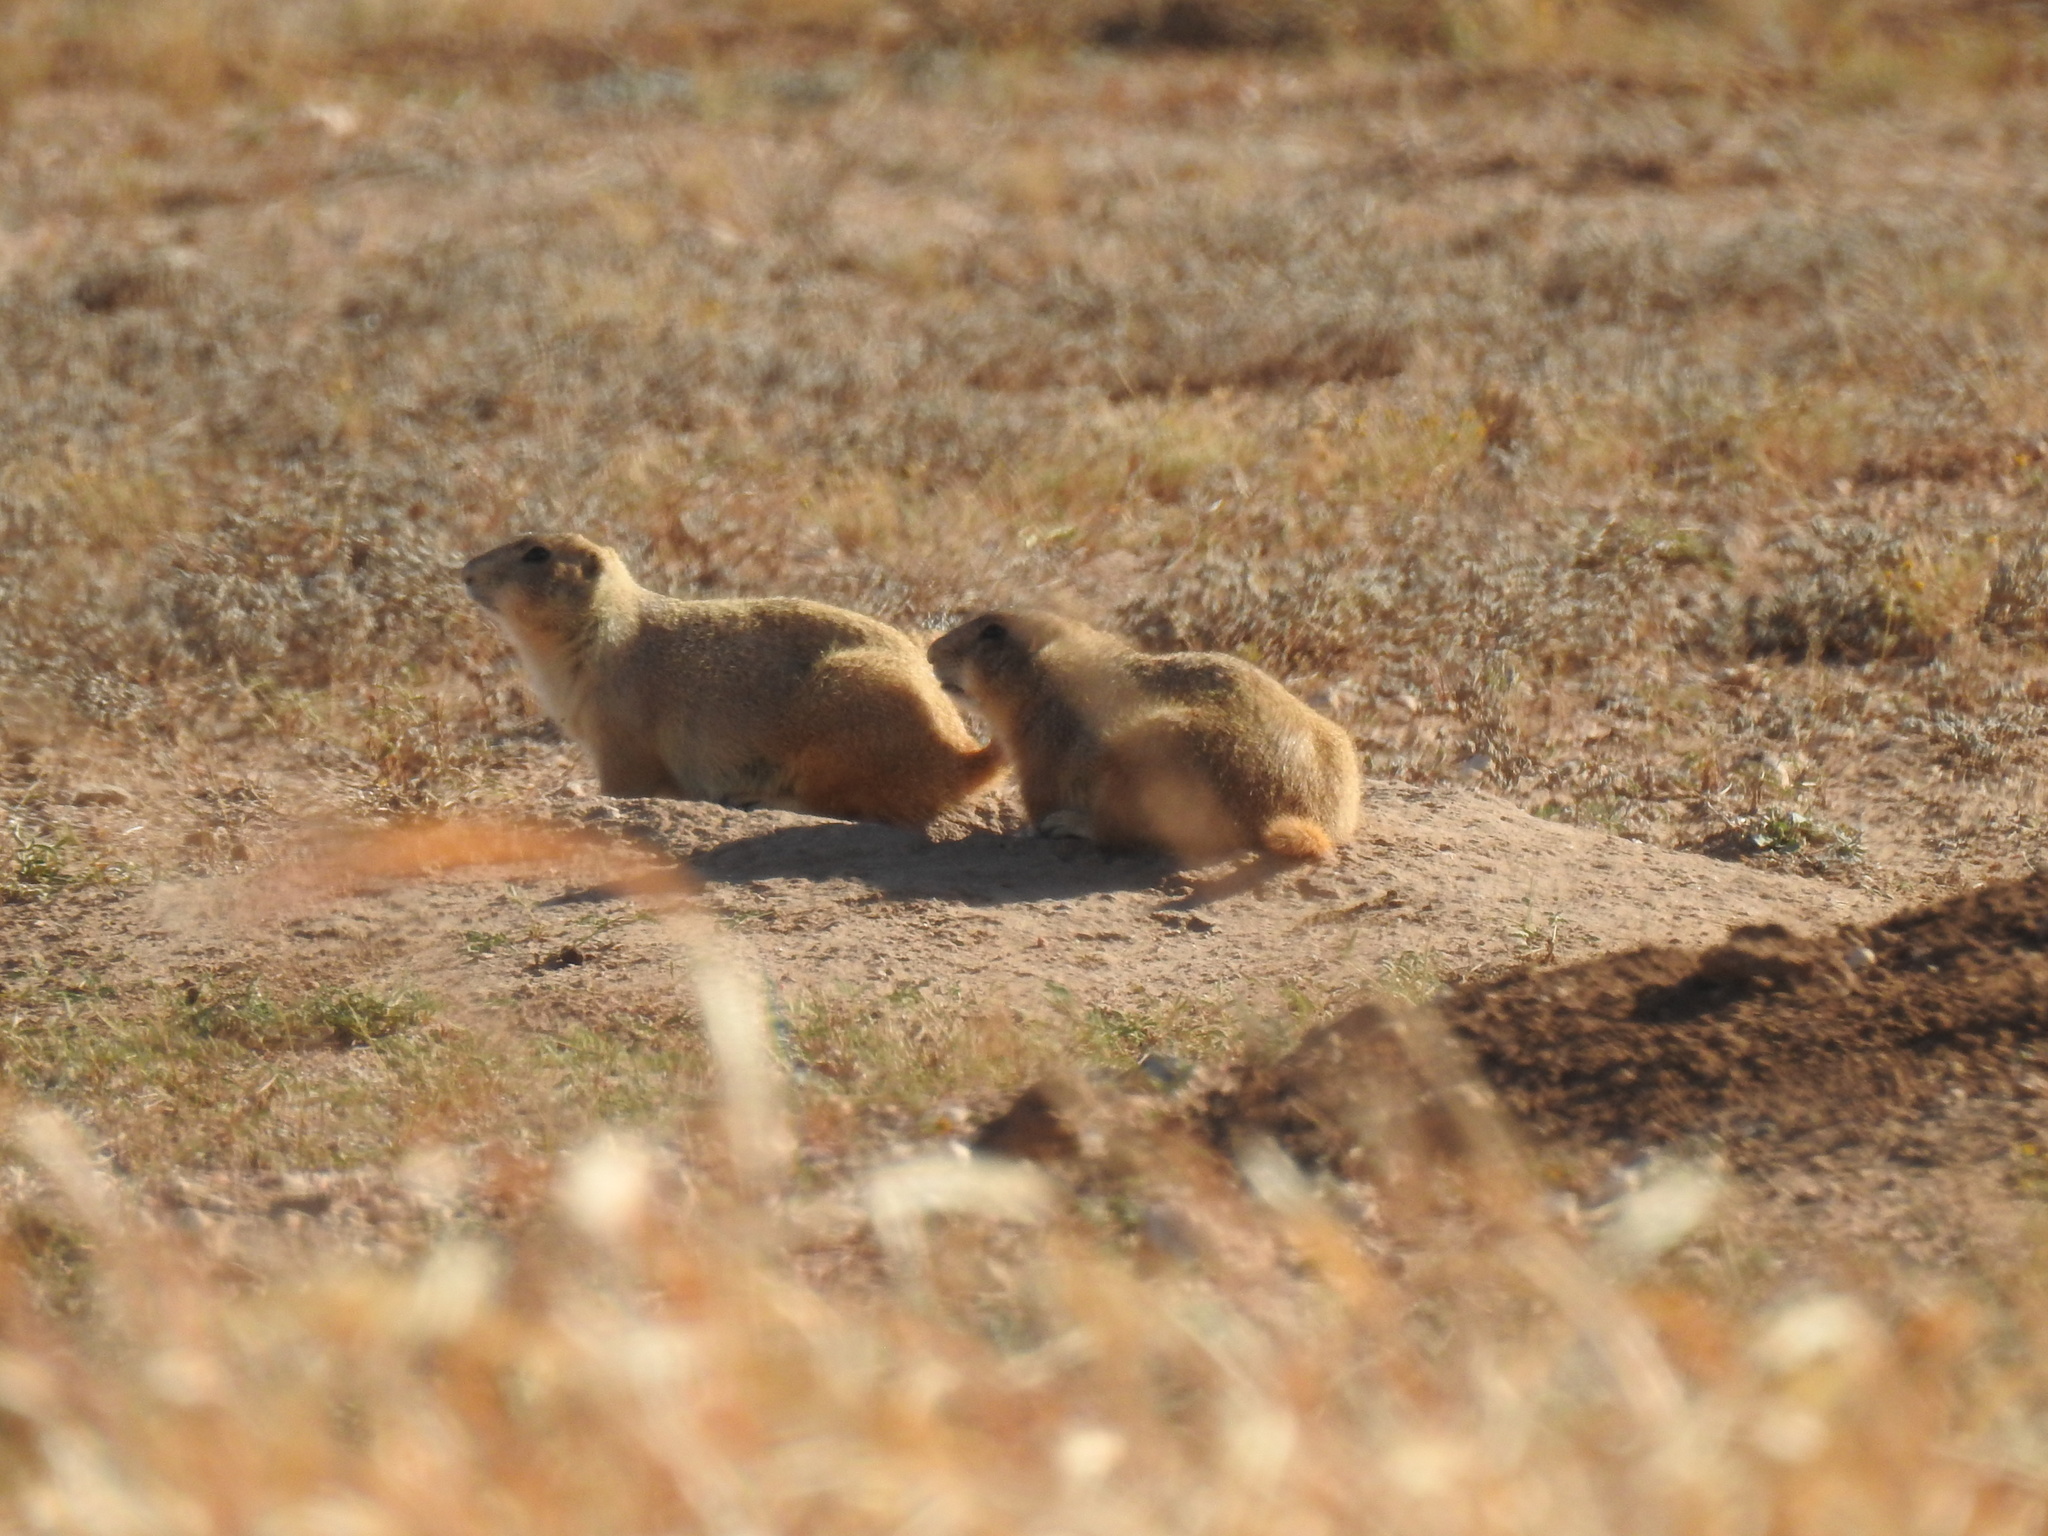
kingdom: Animalia
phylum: Chordata
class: Mammalia
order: Rodentia
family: Sciuridae
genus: Cynomys
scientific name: Cynomys ludovicianus
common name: Black-tailed prairie dog
